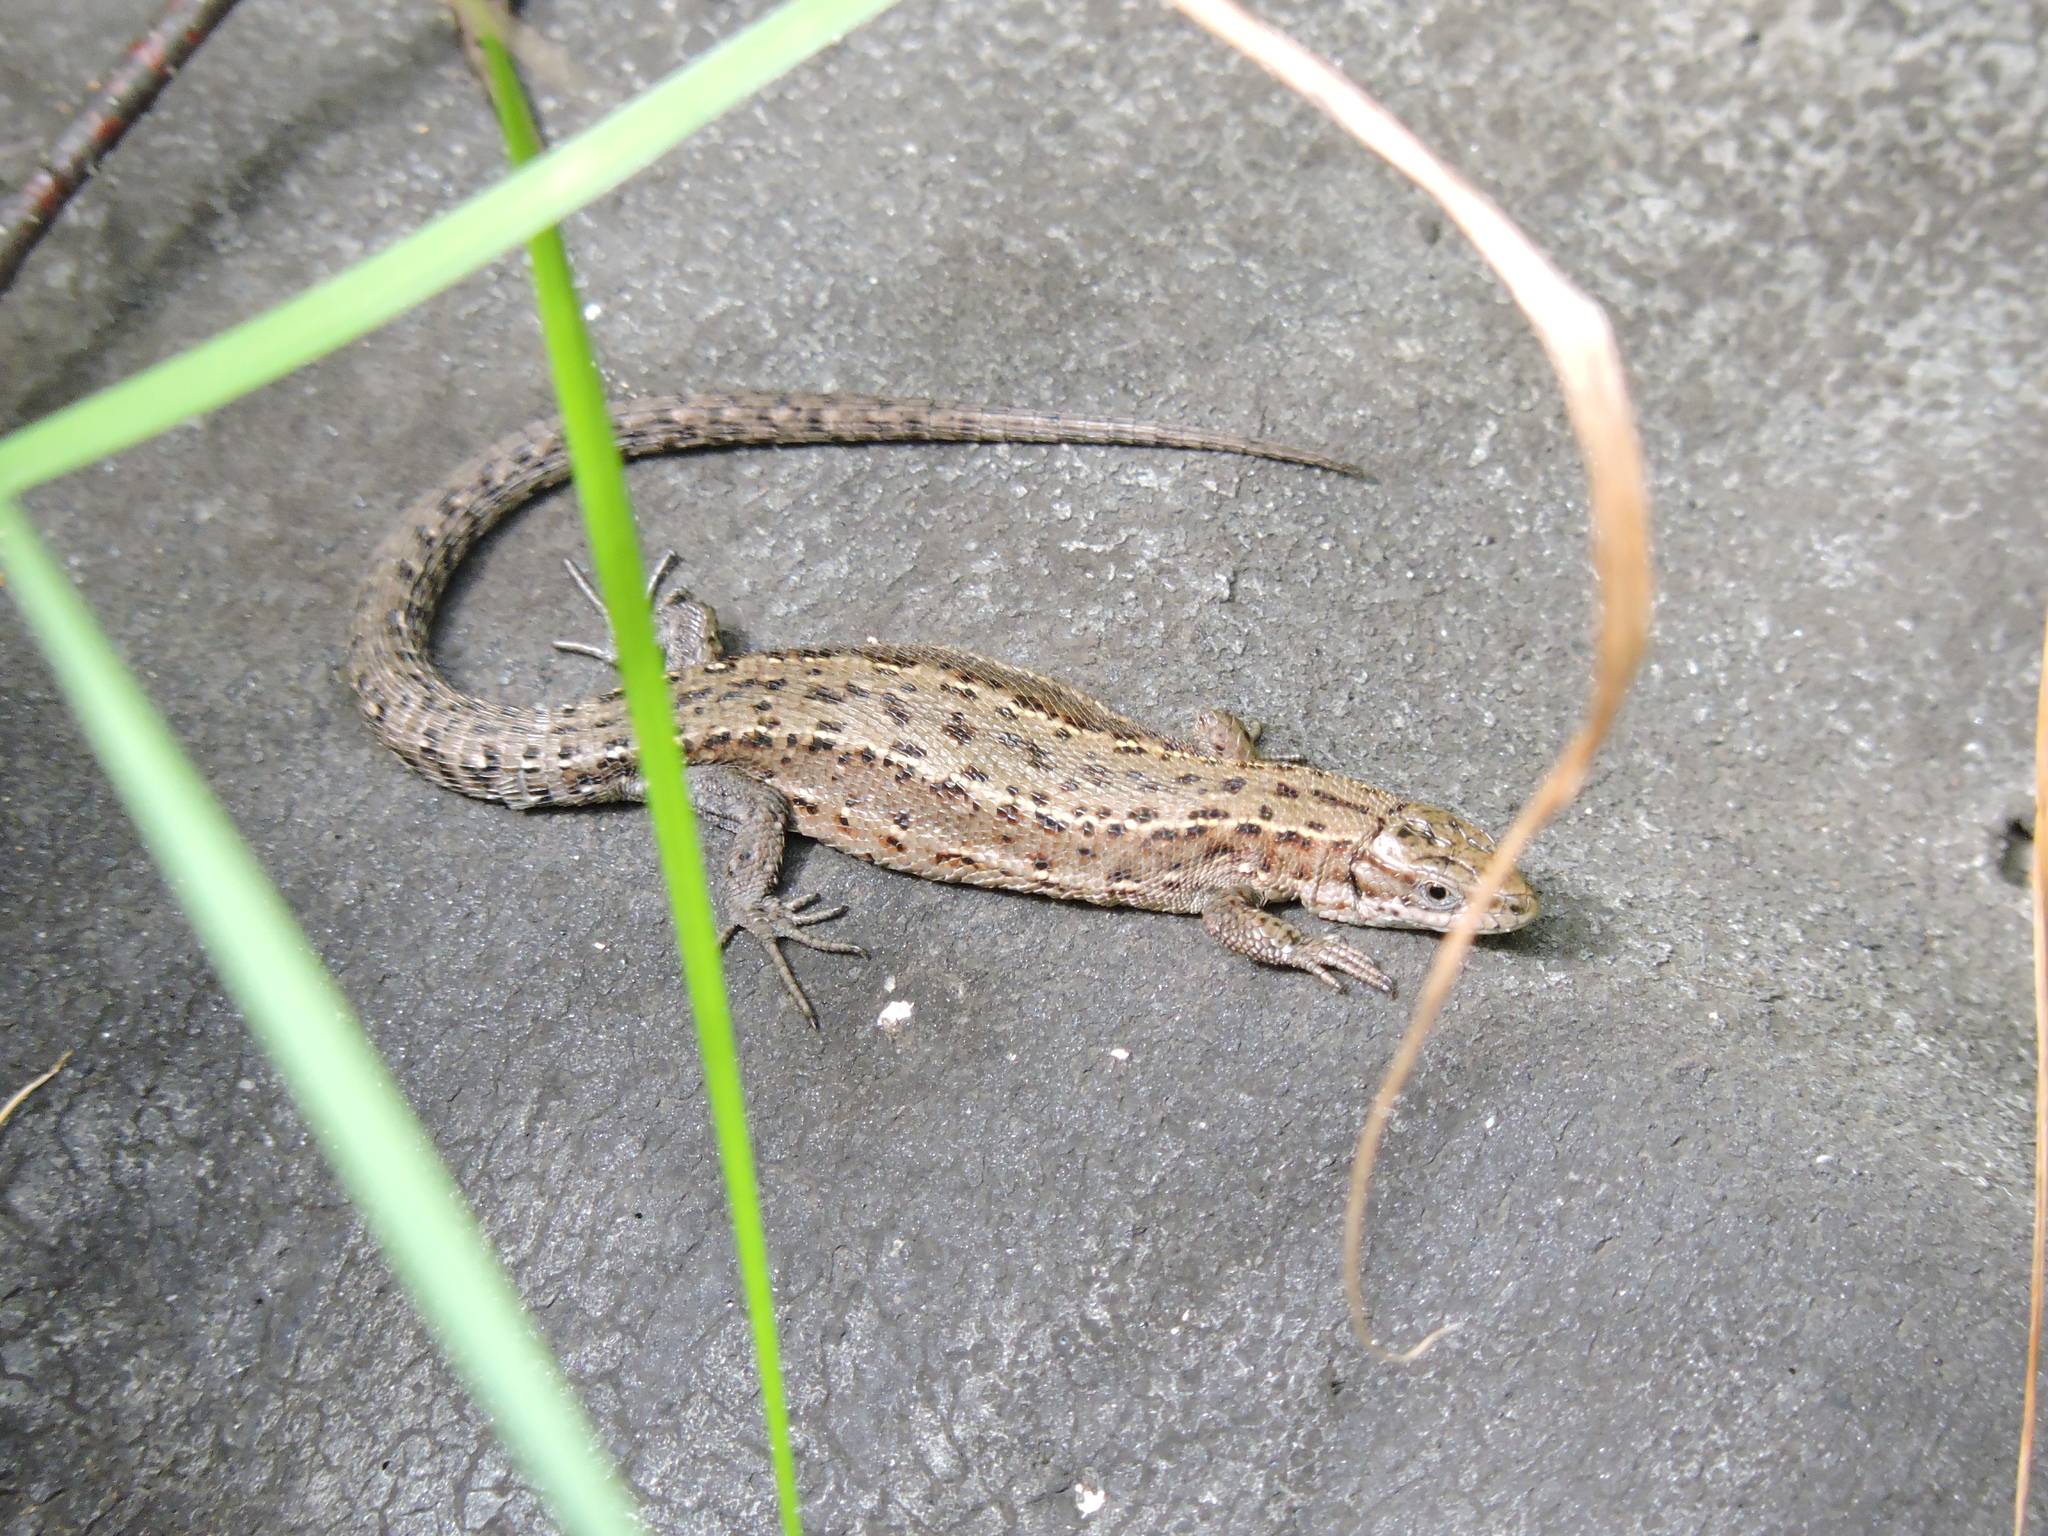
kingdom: Animalia
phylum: Chordata
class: Squamata
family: Lacertidae
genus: Zootoca
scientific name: Zootoca vivipara
